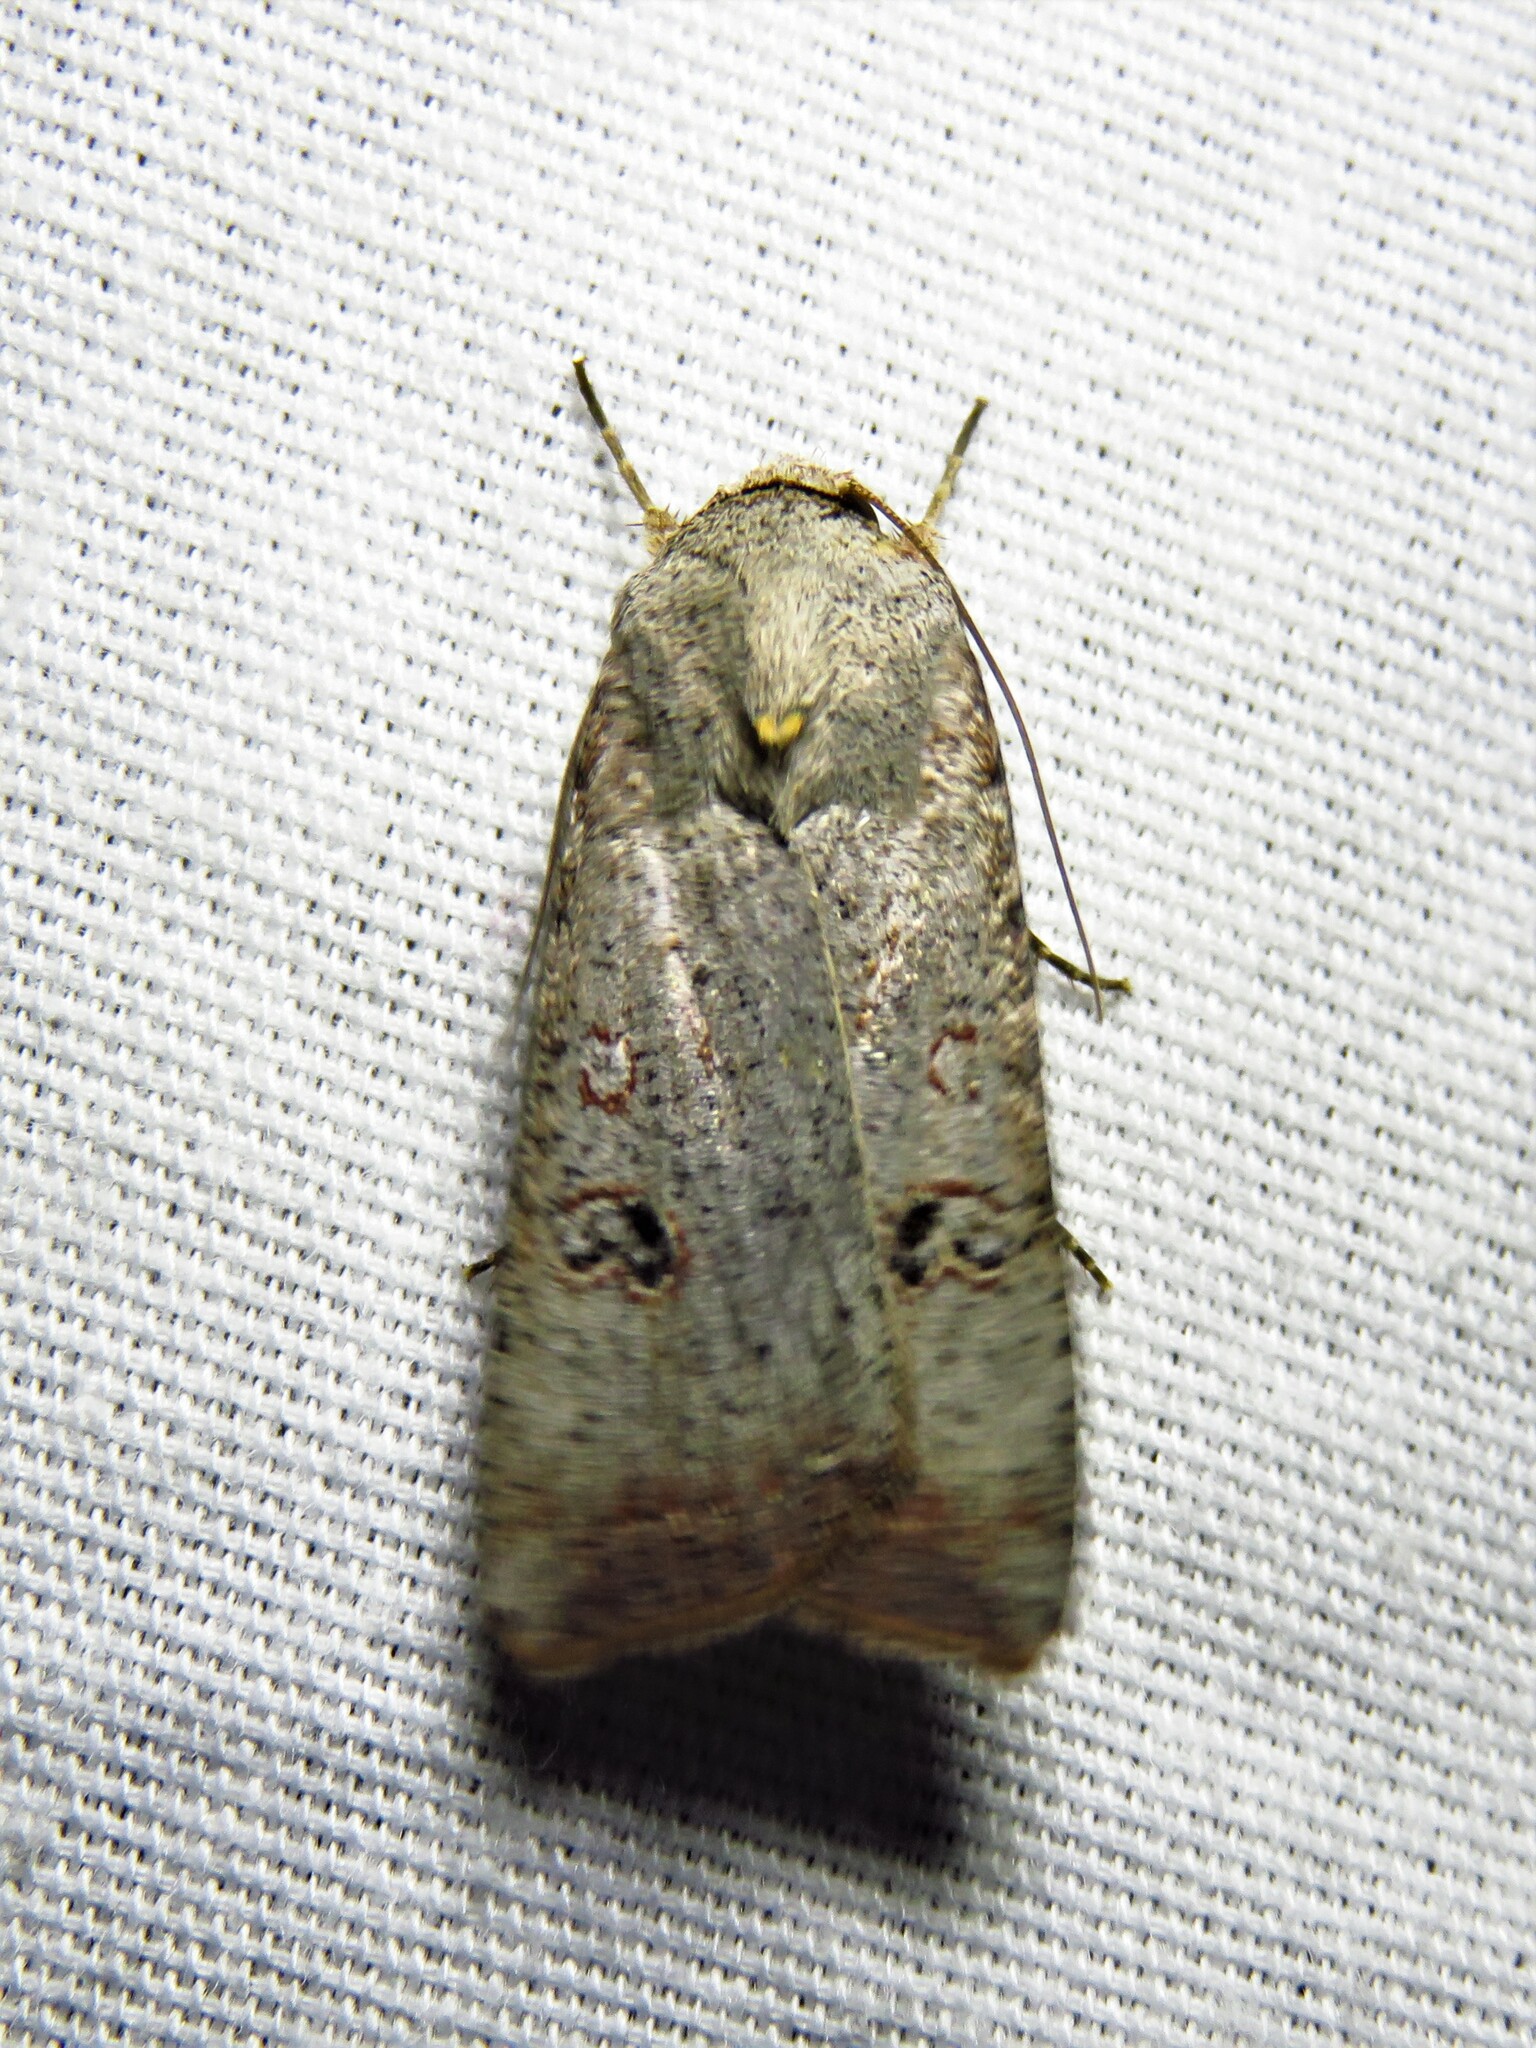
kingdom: Animalia
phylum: Arthropoda
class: Insecta
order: Lepidoptera
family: Noctuidae
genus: Anicla
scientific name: Anicla infecta
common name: Green cutworm
